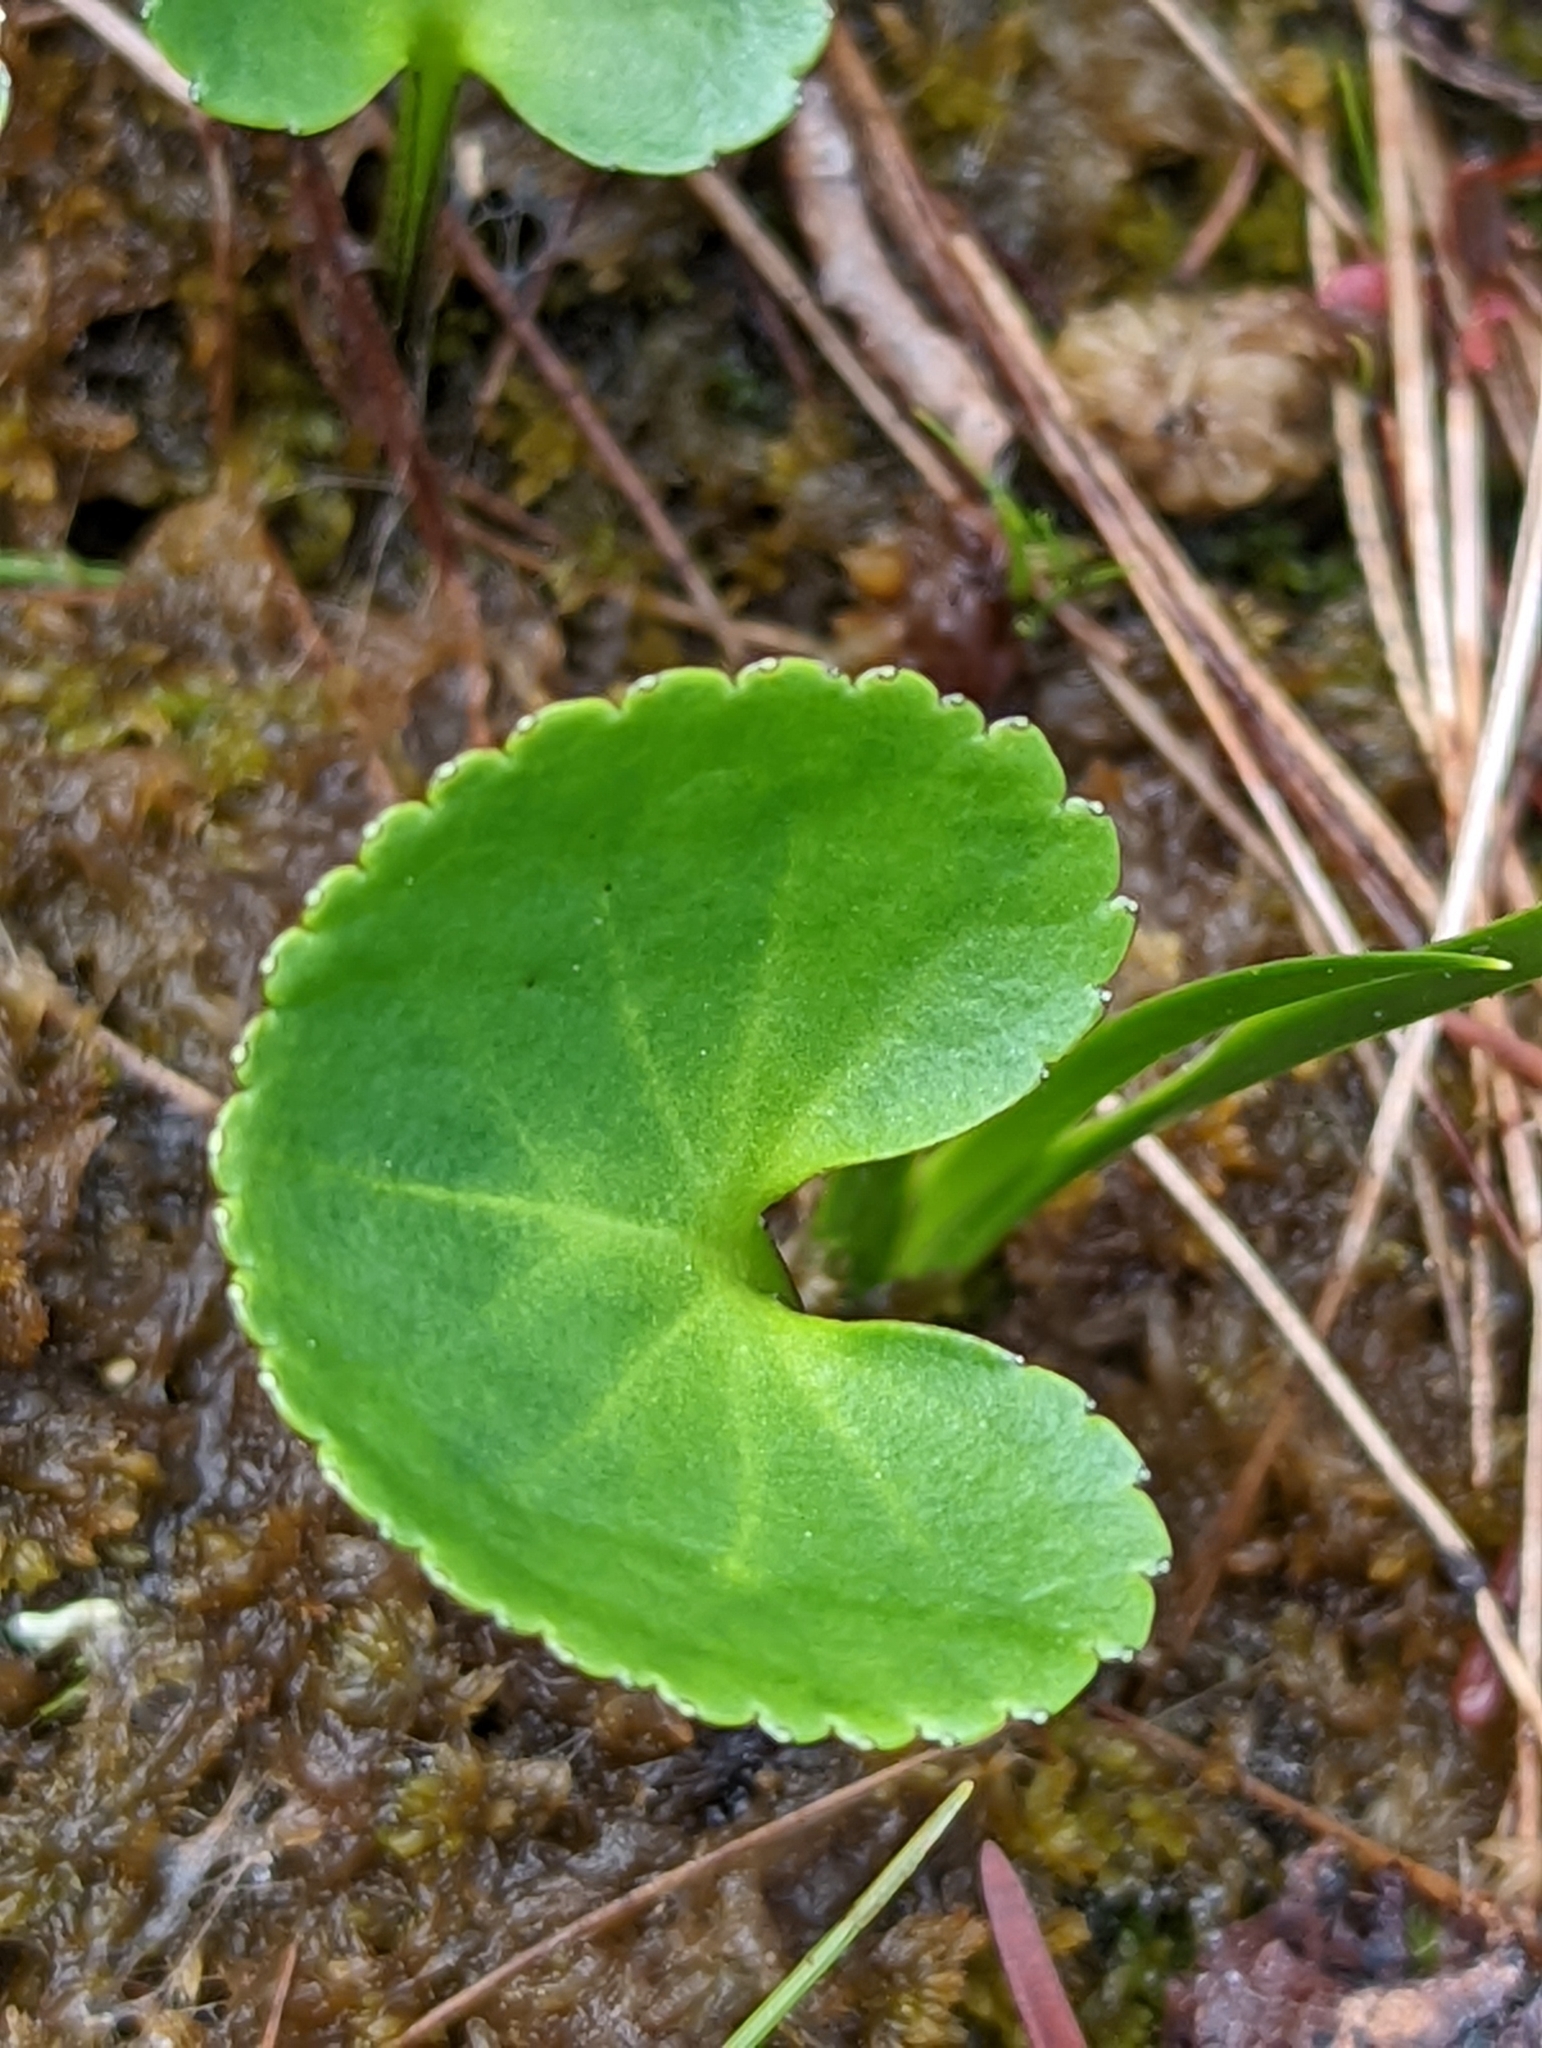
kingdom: Plantae
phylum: Tracheophyta
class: Magnoliopsida
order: Asterales
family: Menyanthaceae
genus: Nephrophyllidium
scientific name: Nephrophyllidium crista-galli
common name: Deer-cabbage
